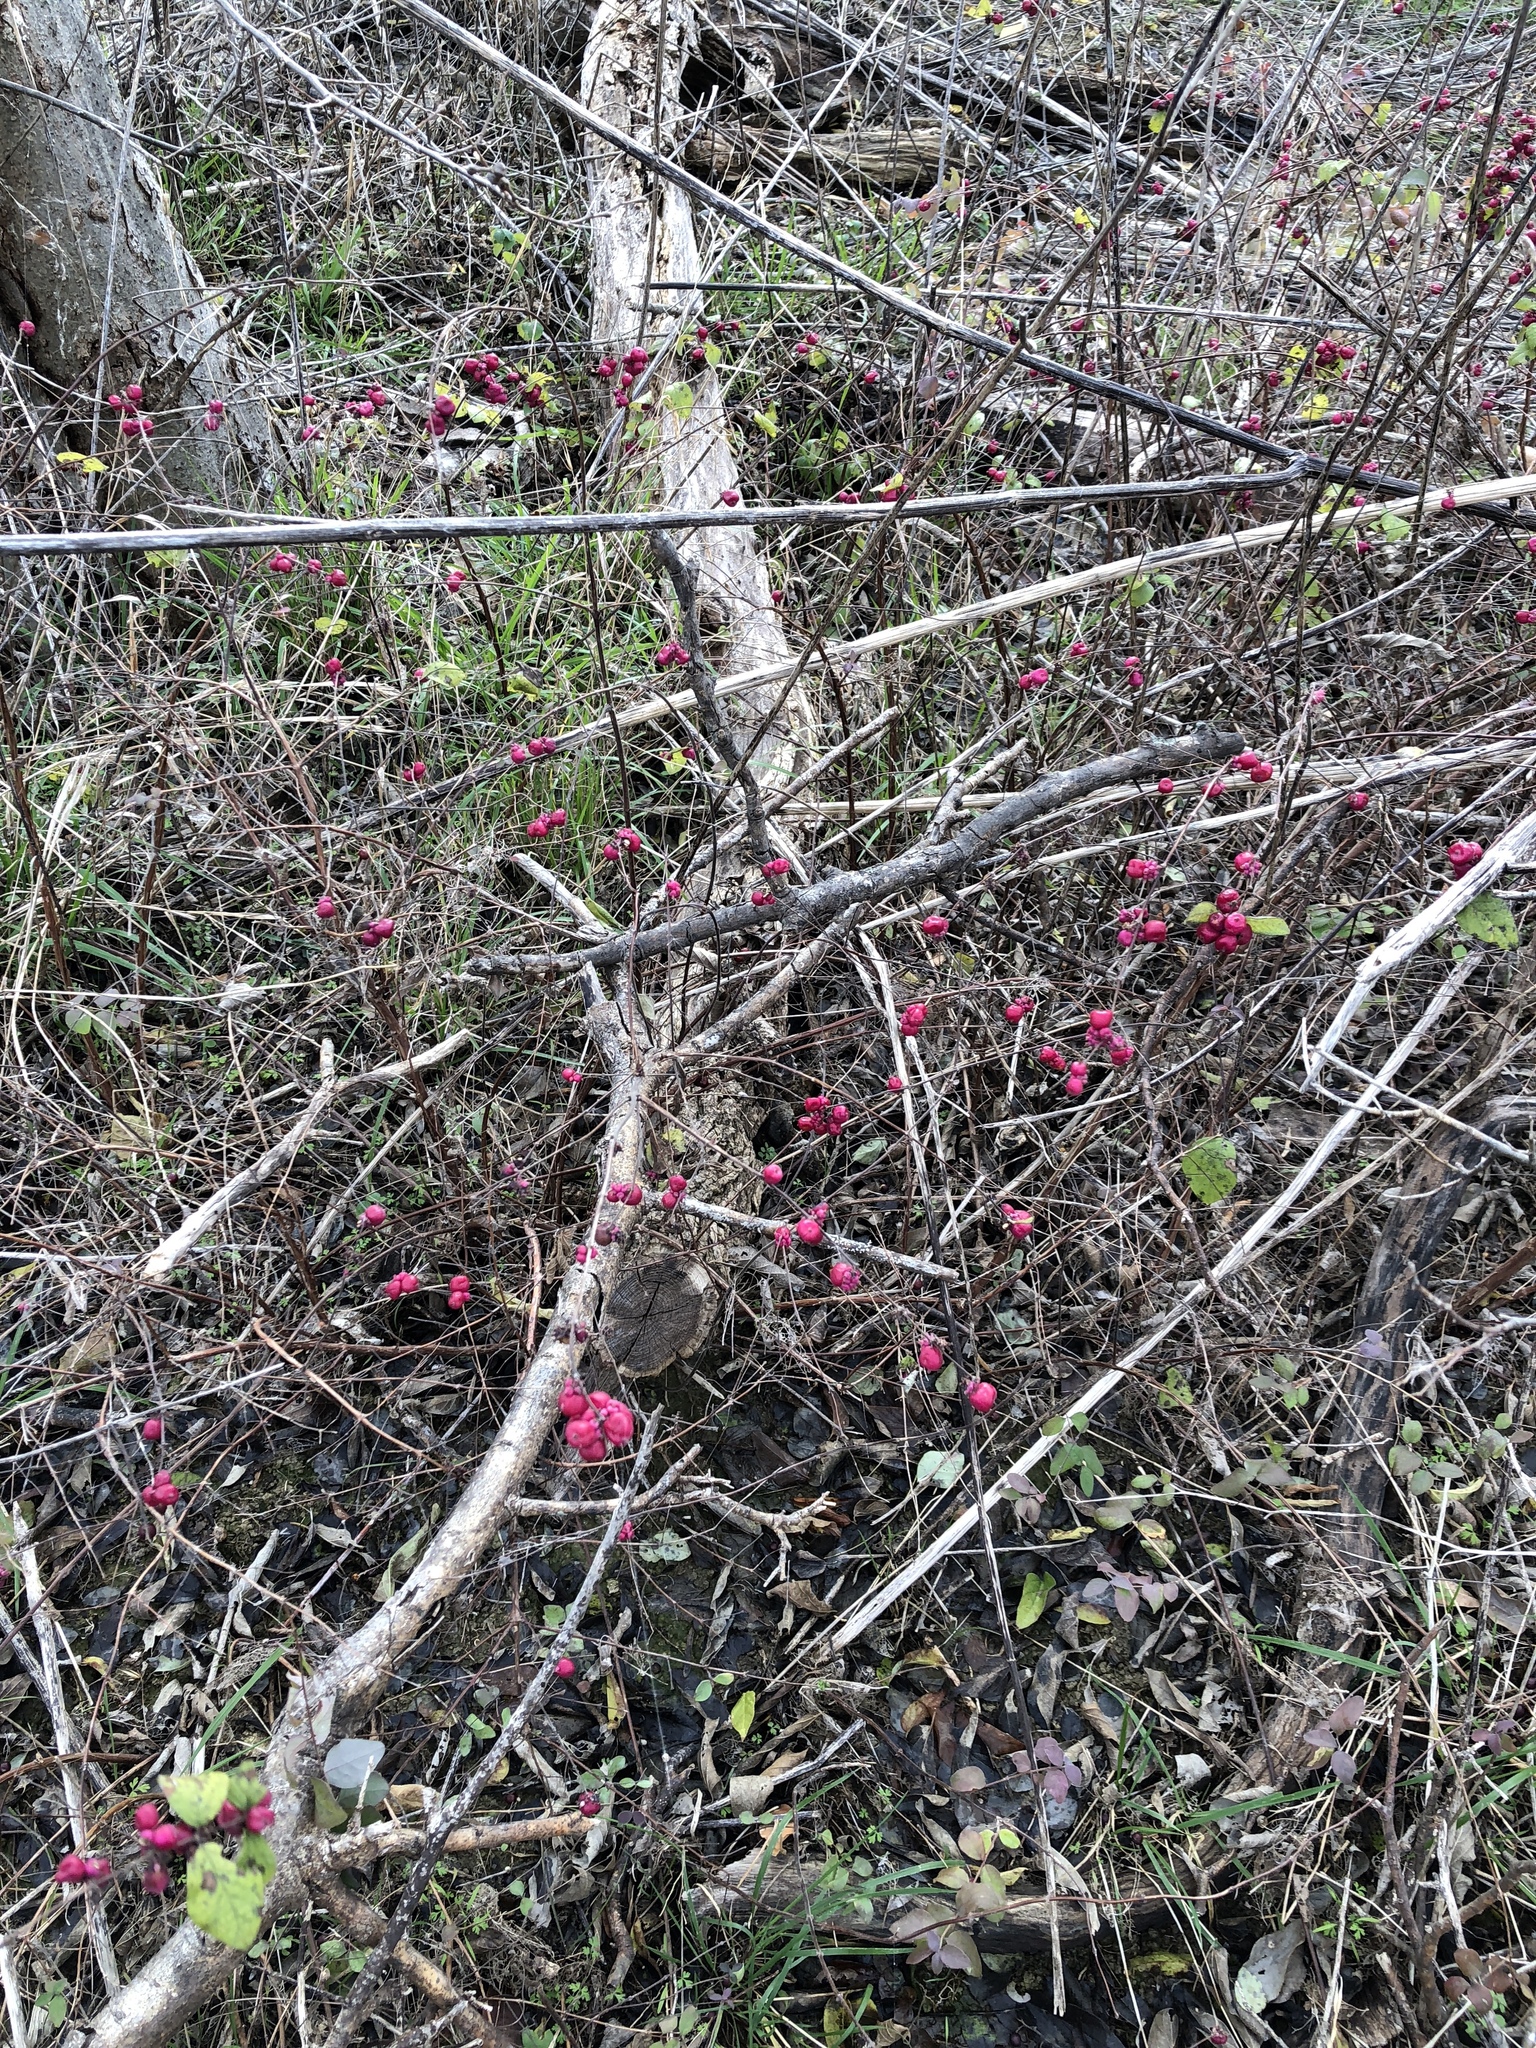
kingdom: Plantae
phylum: Tracheophyta
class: Magnoliopsida
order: Dipsacales
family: Caprifoliaceae
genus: Symphoricarpos
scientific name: Symphoricarpos orbiculatus
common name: Coralberry
